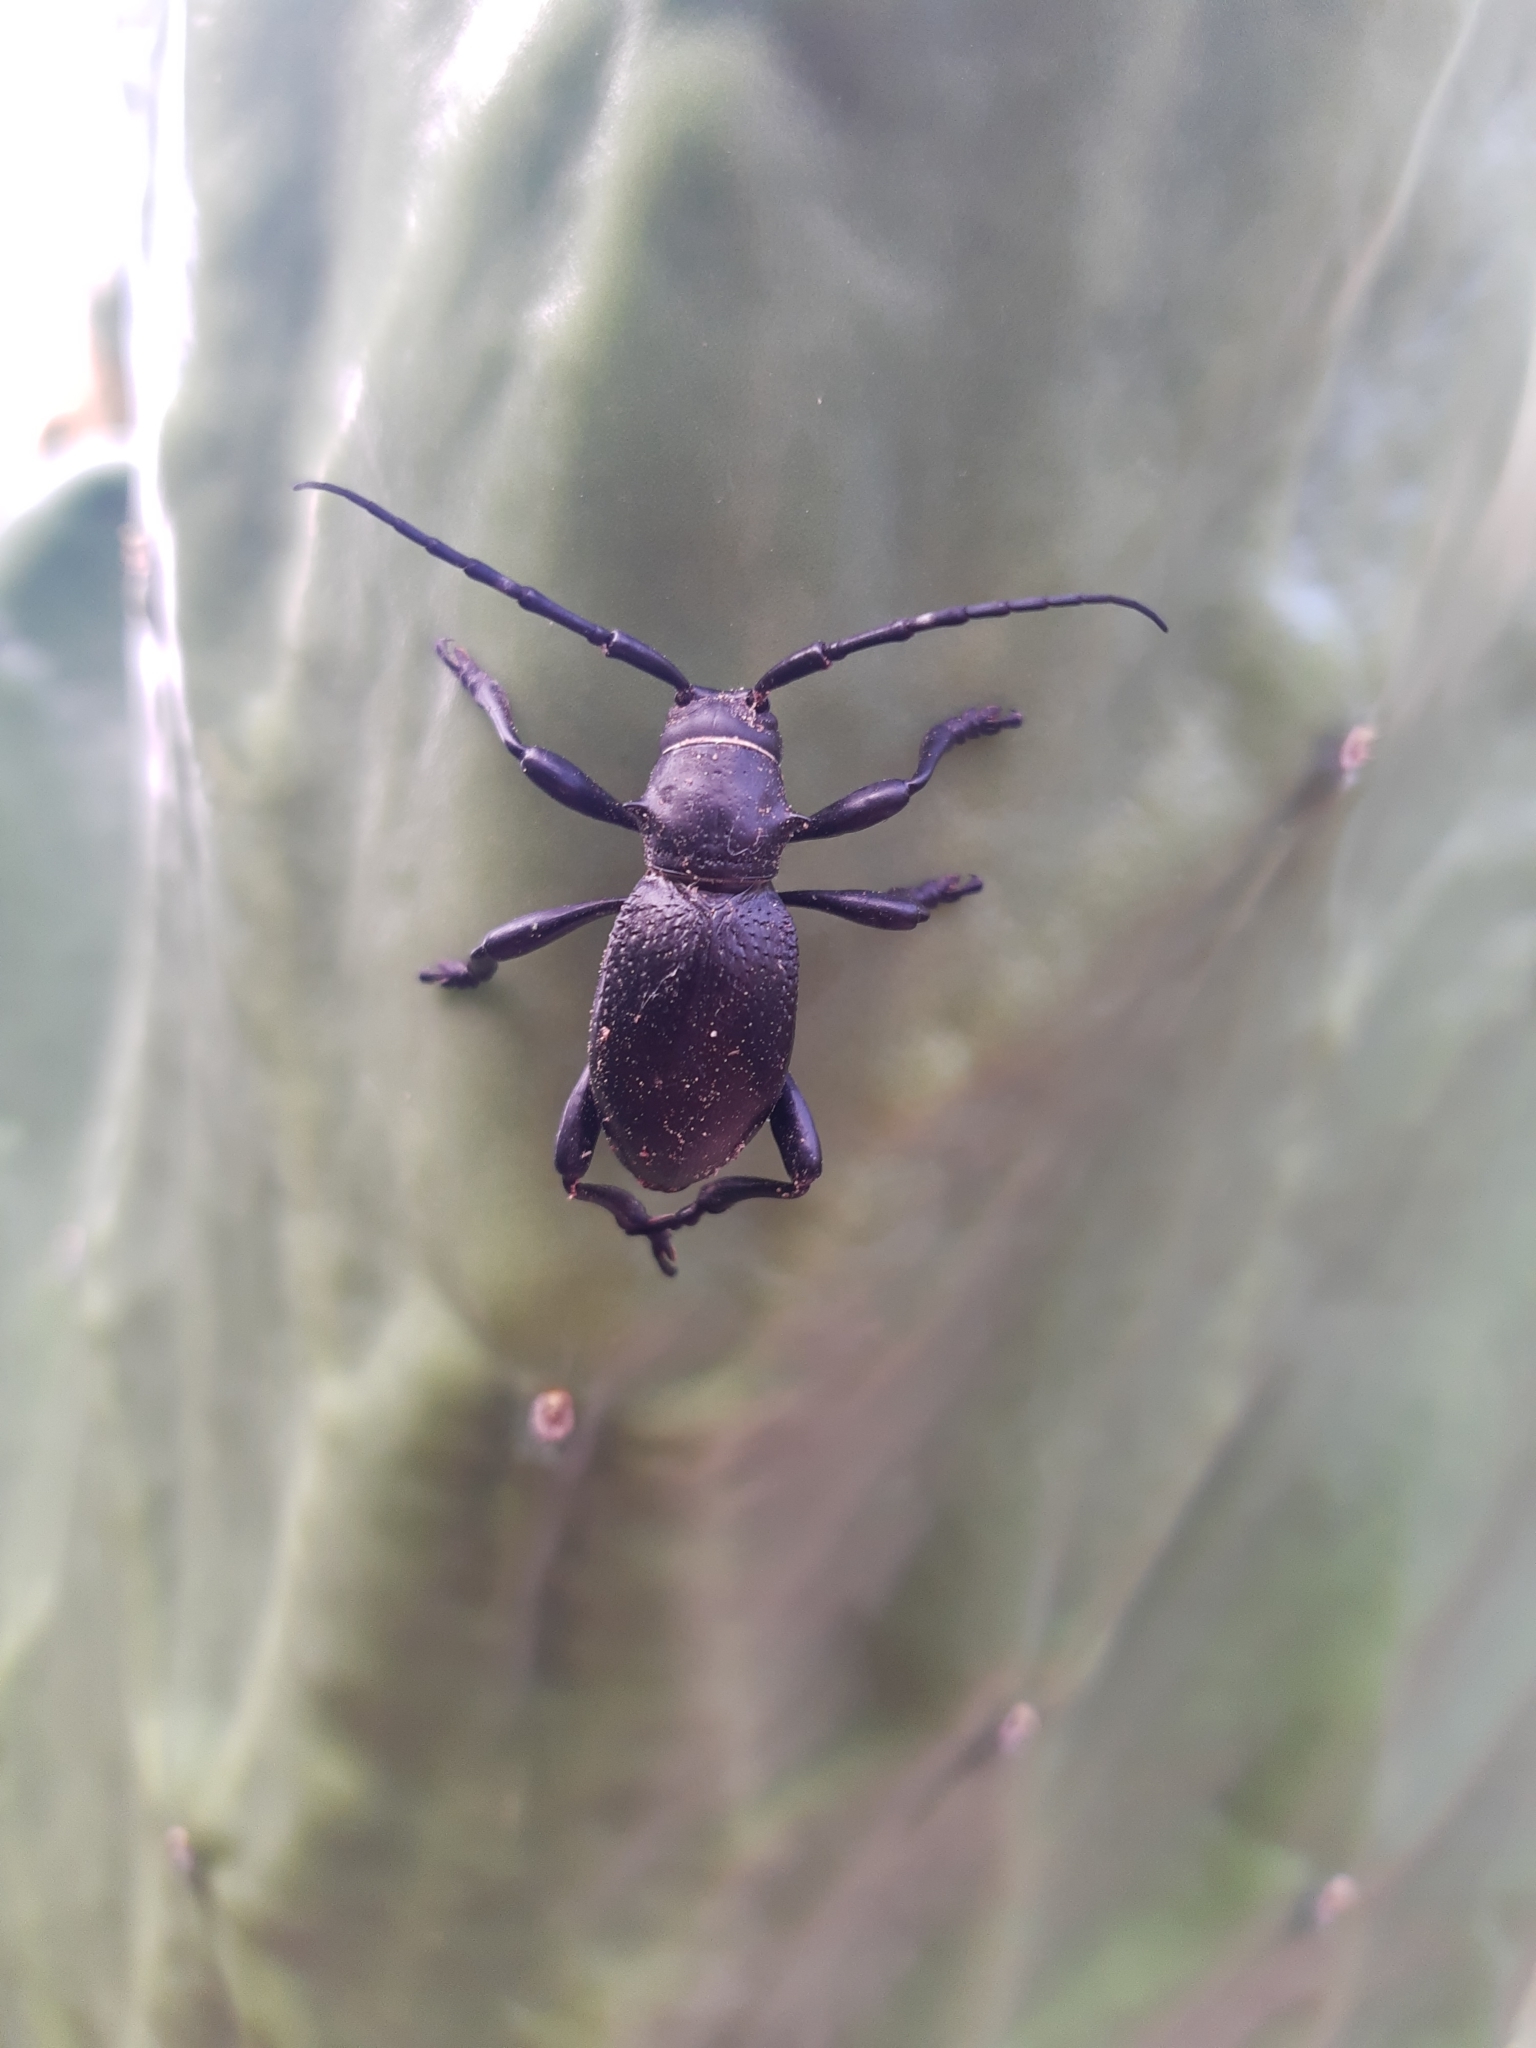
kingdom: Animalia
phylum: Arthropoda
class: Insecta
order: Coleoptera
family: Cerambycidae
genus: Moneilema
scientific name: Moneilema gigas
